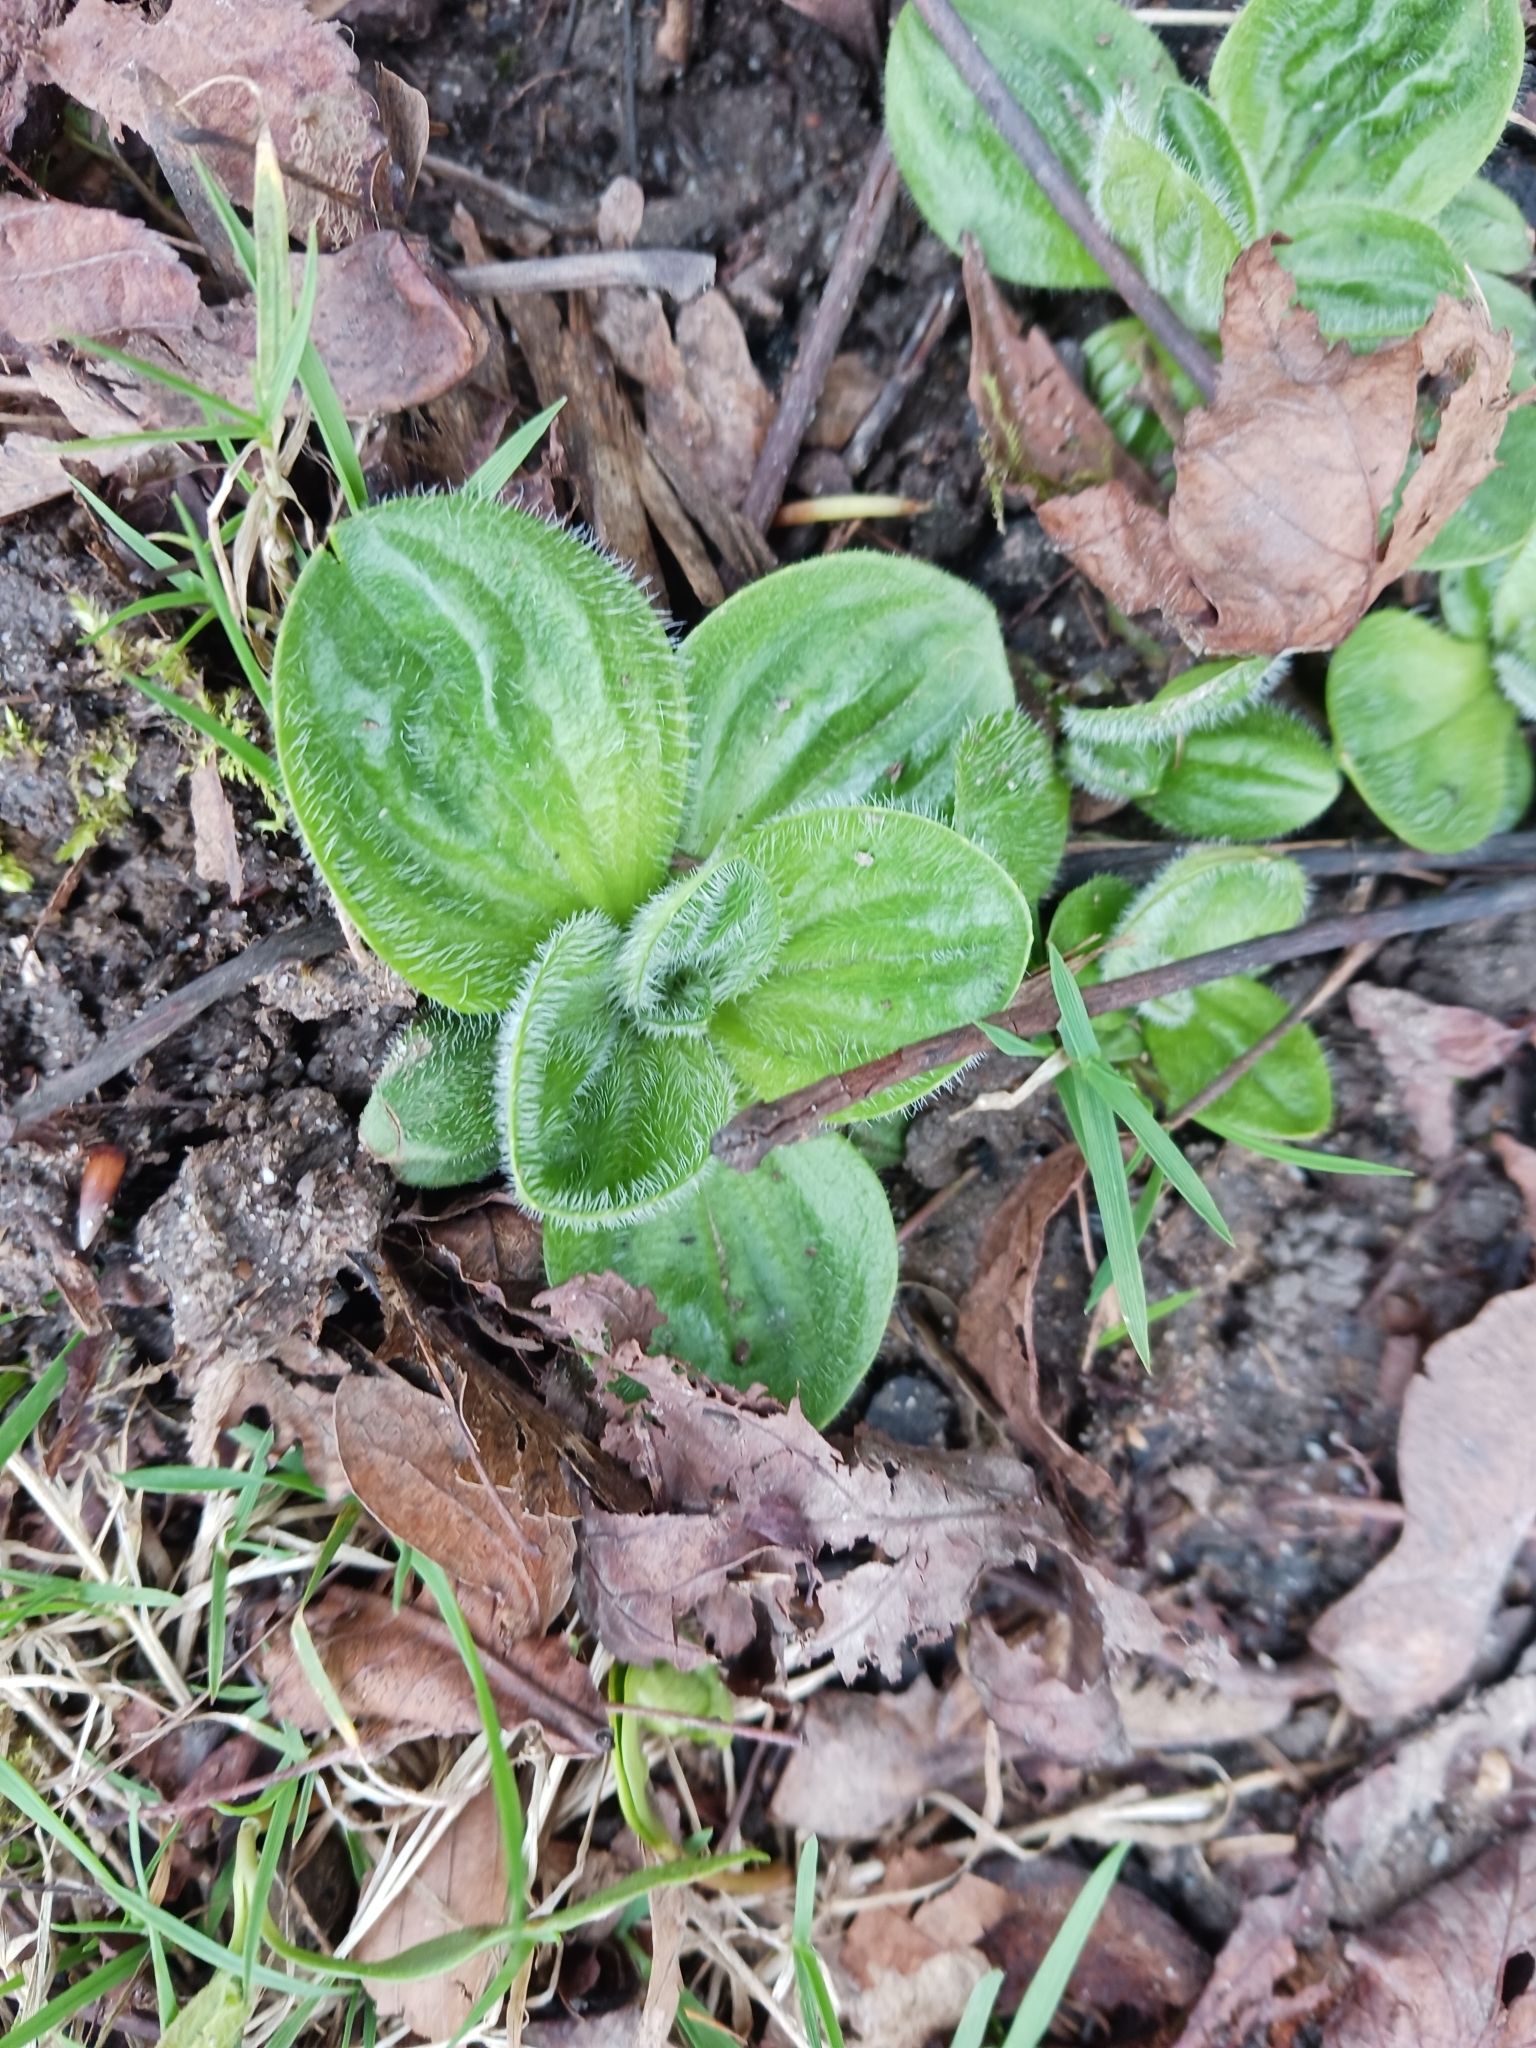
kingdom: Plantae
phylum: Tracheophyta
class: Magnoliopsida
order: Lamiales
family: Plantaginaceae
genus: Plantago
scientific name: Plantago media
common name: Hoary plantain
